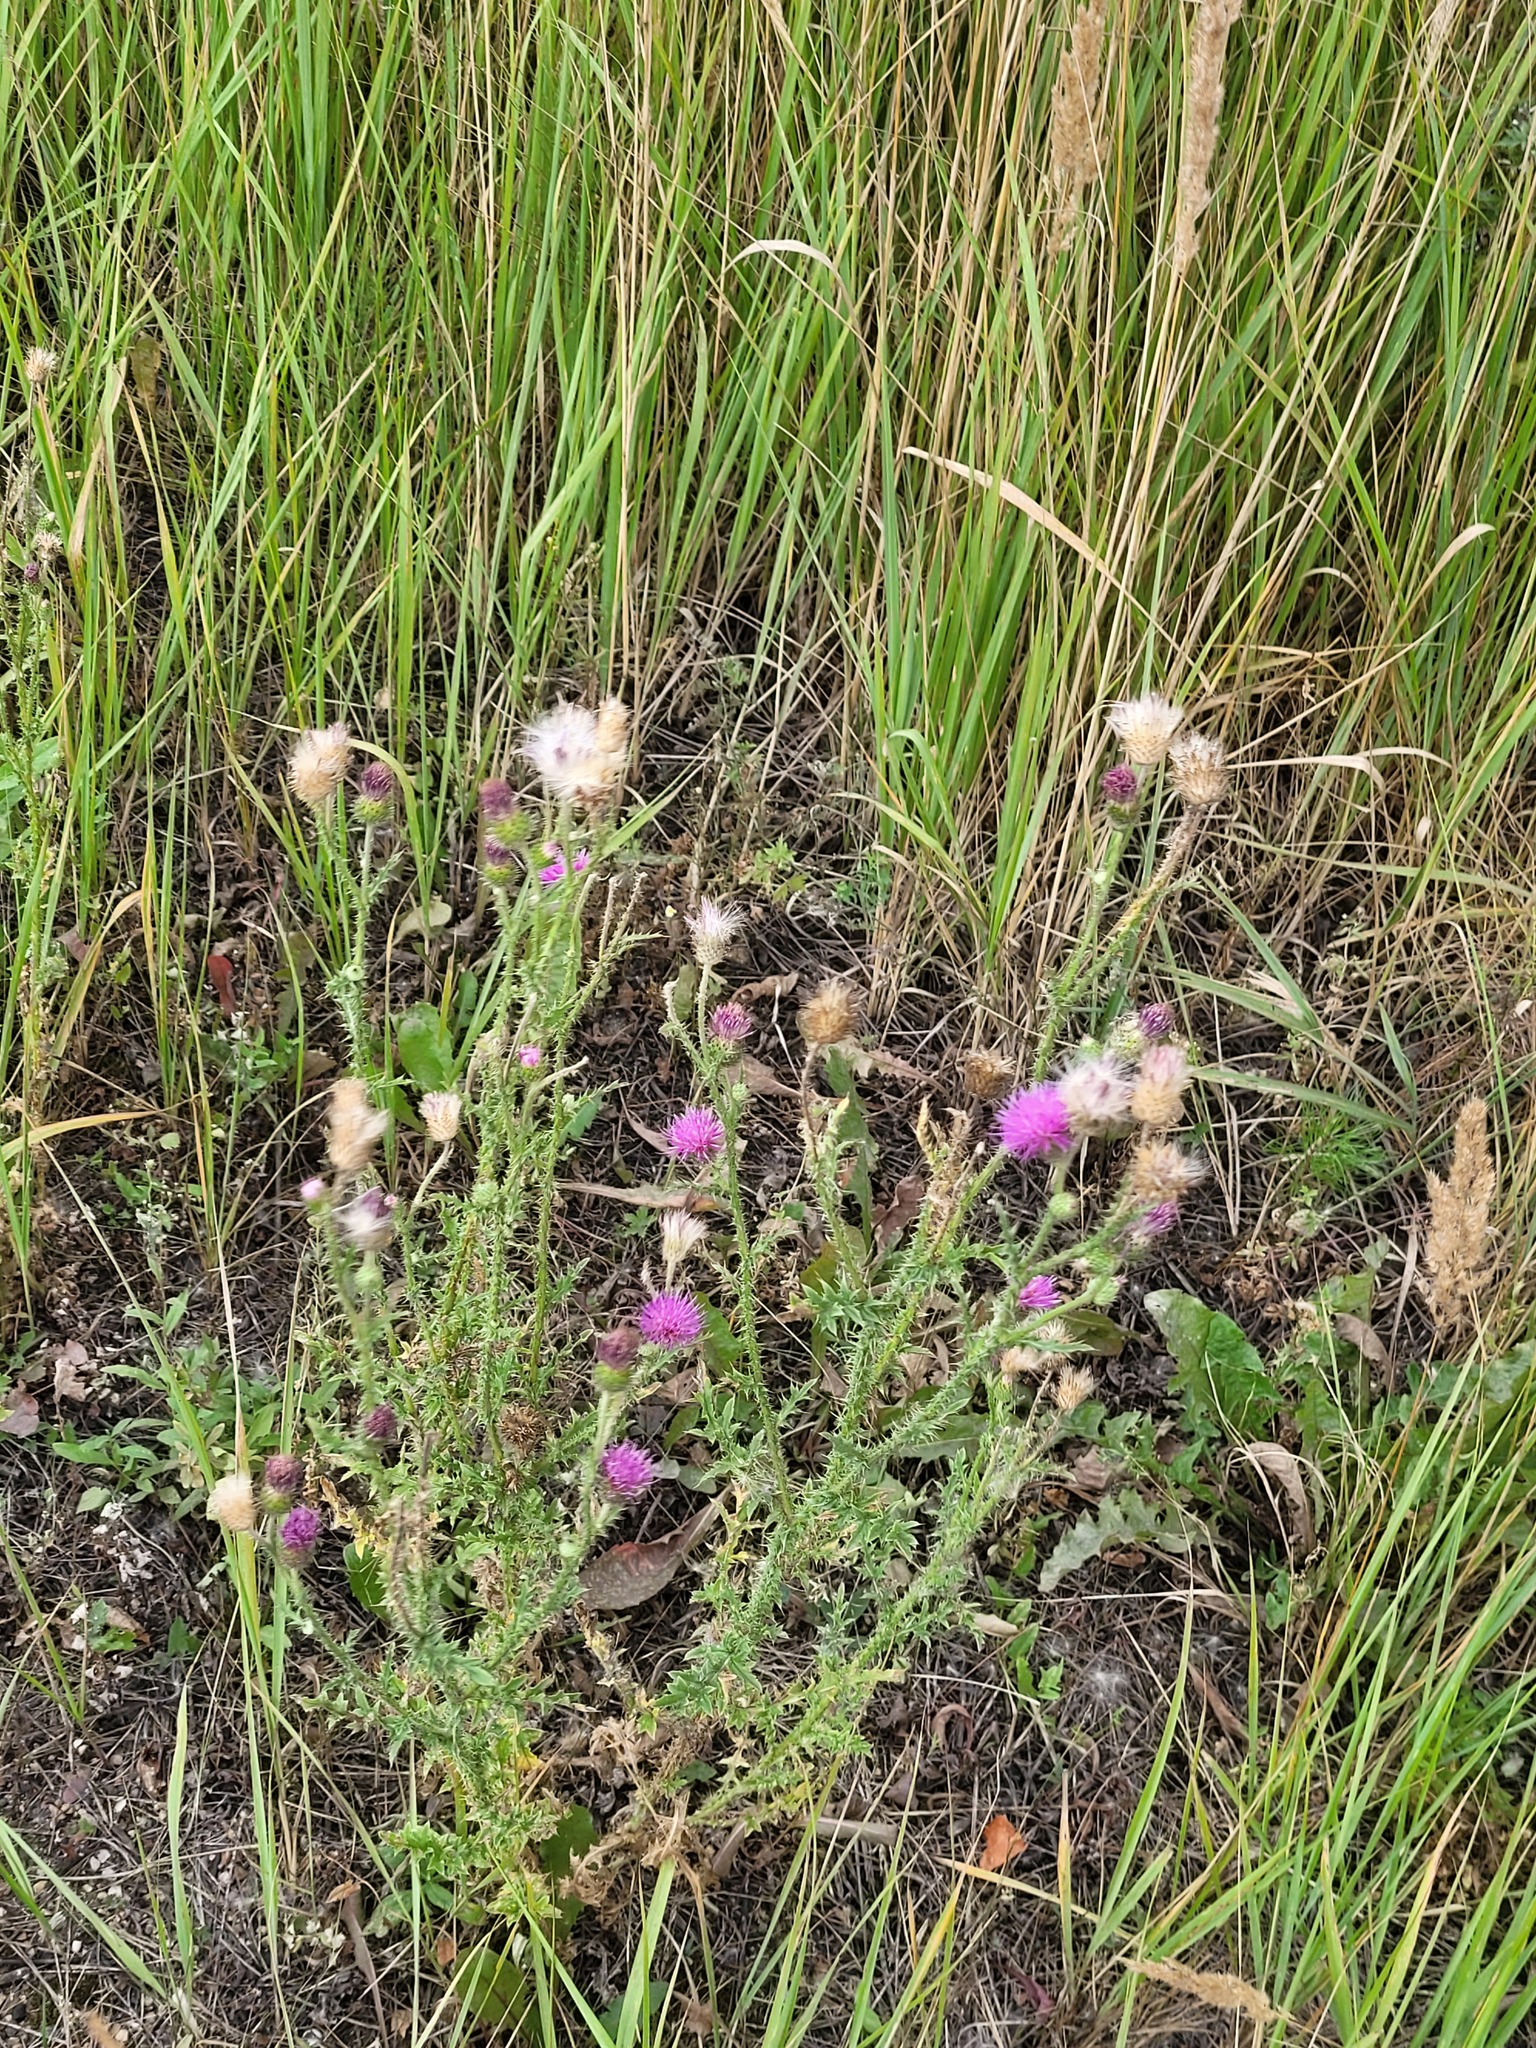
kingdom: Plantae
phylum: Tracheophyta
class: Magnoliopsida
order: Asterales
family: Asteraceae
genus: Carduus
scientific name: Carduus acanthoides
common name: Plumeless thistle
